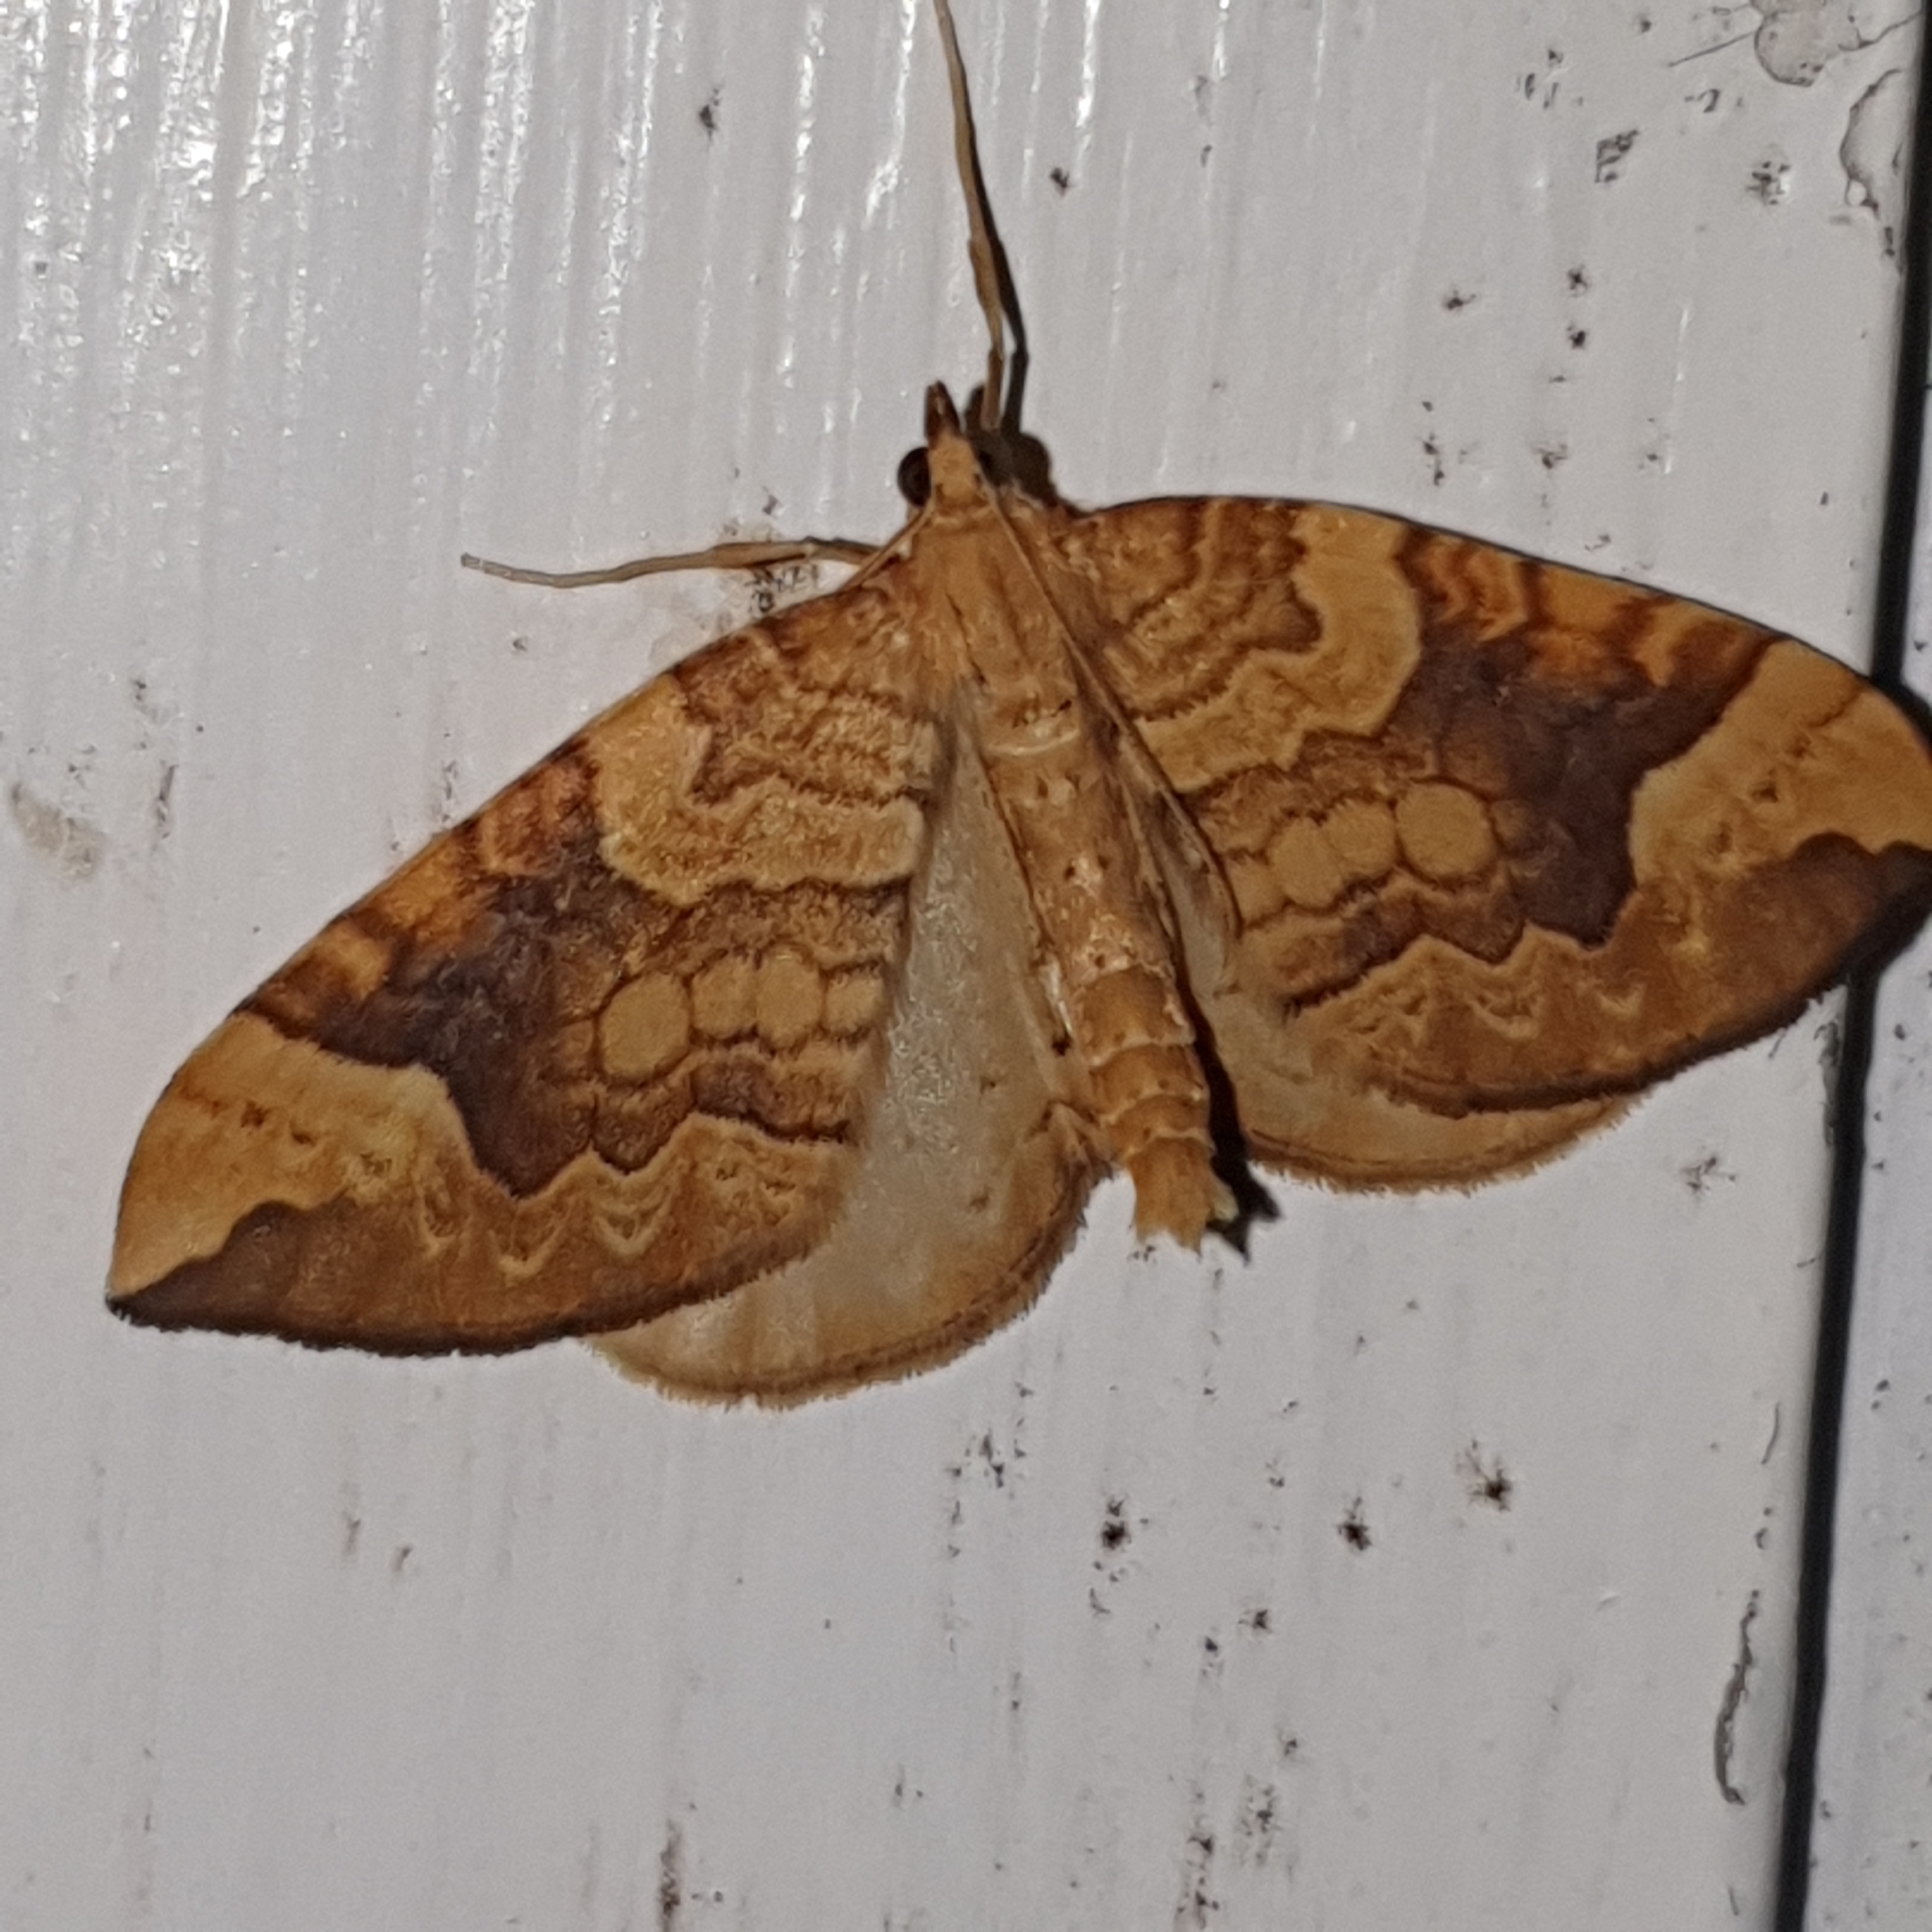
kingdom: Animalia
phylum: Arthropoda
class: Insecta
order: Lepidoptera
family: Geometridae
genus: Eulithis
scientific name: Eulithis populata
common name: Northern spinach
